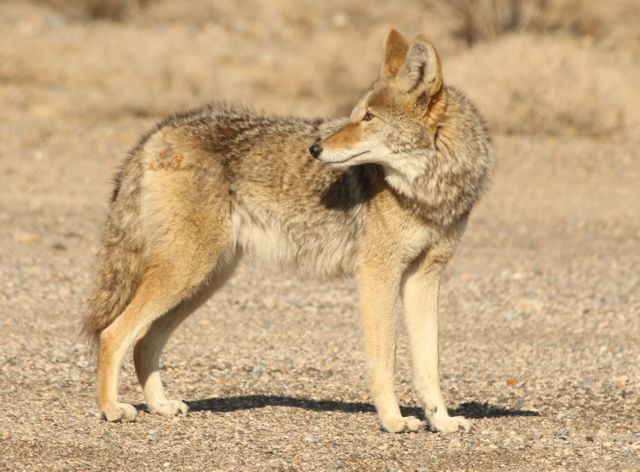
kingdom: Animalia
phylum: Chordata
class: Mammalia
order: Carnivora
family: Canidae
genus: Canis
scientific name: Canis latrans
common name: Coyote
